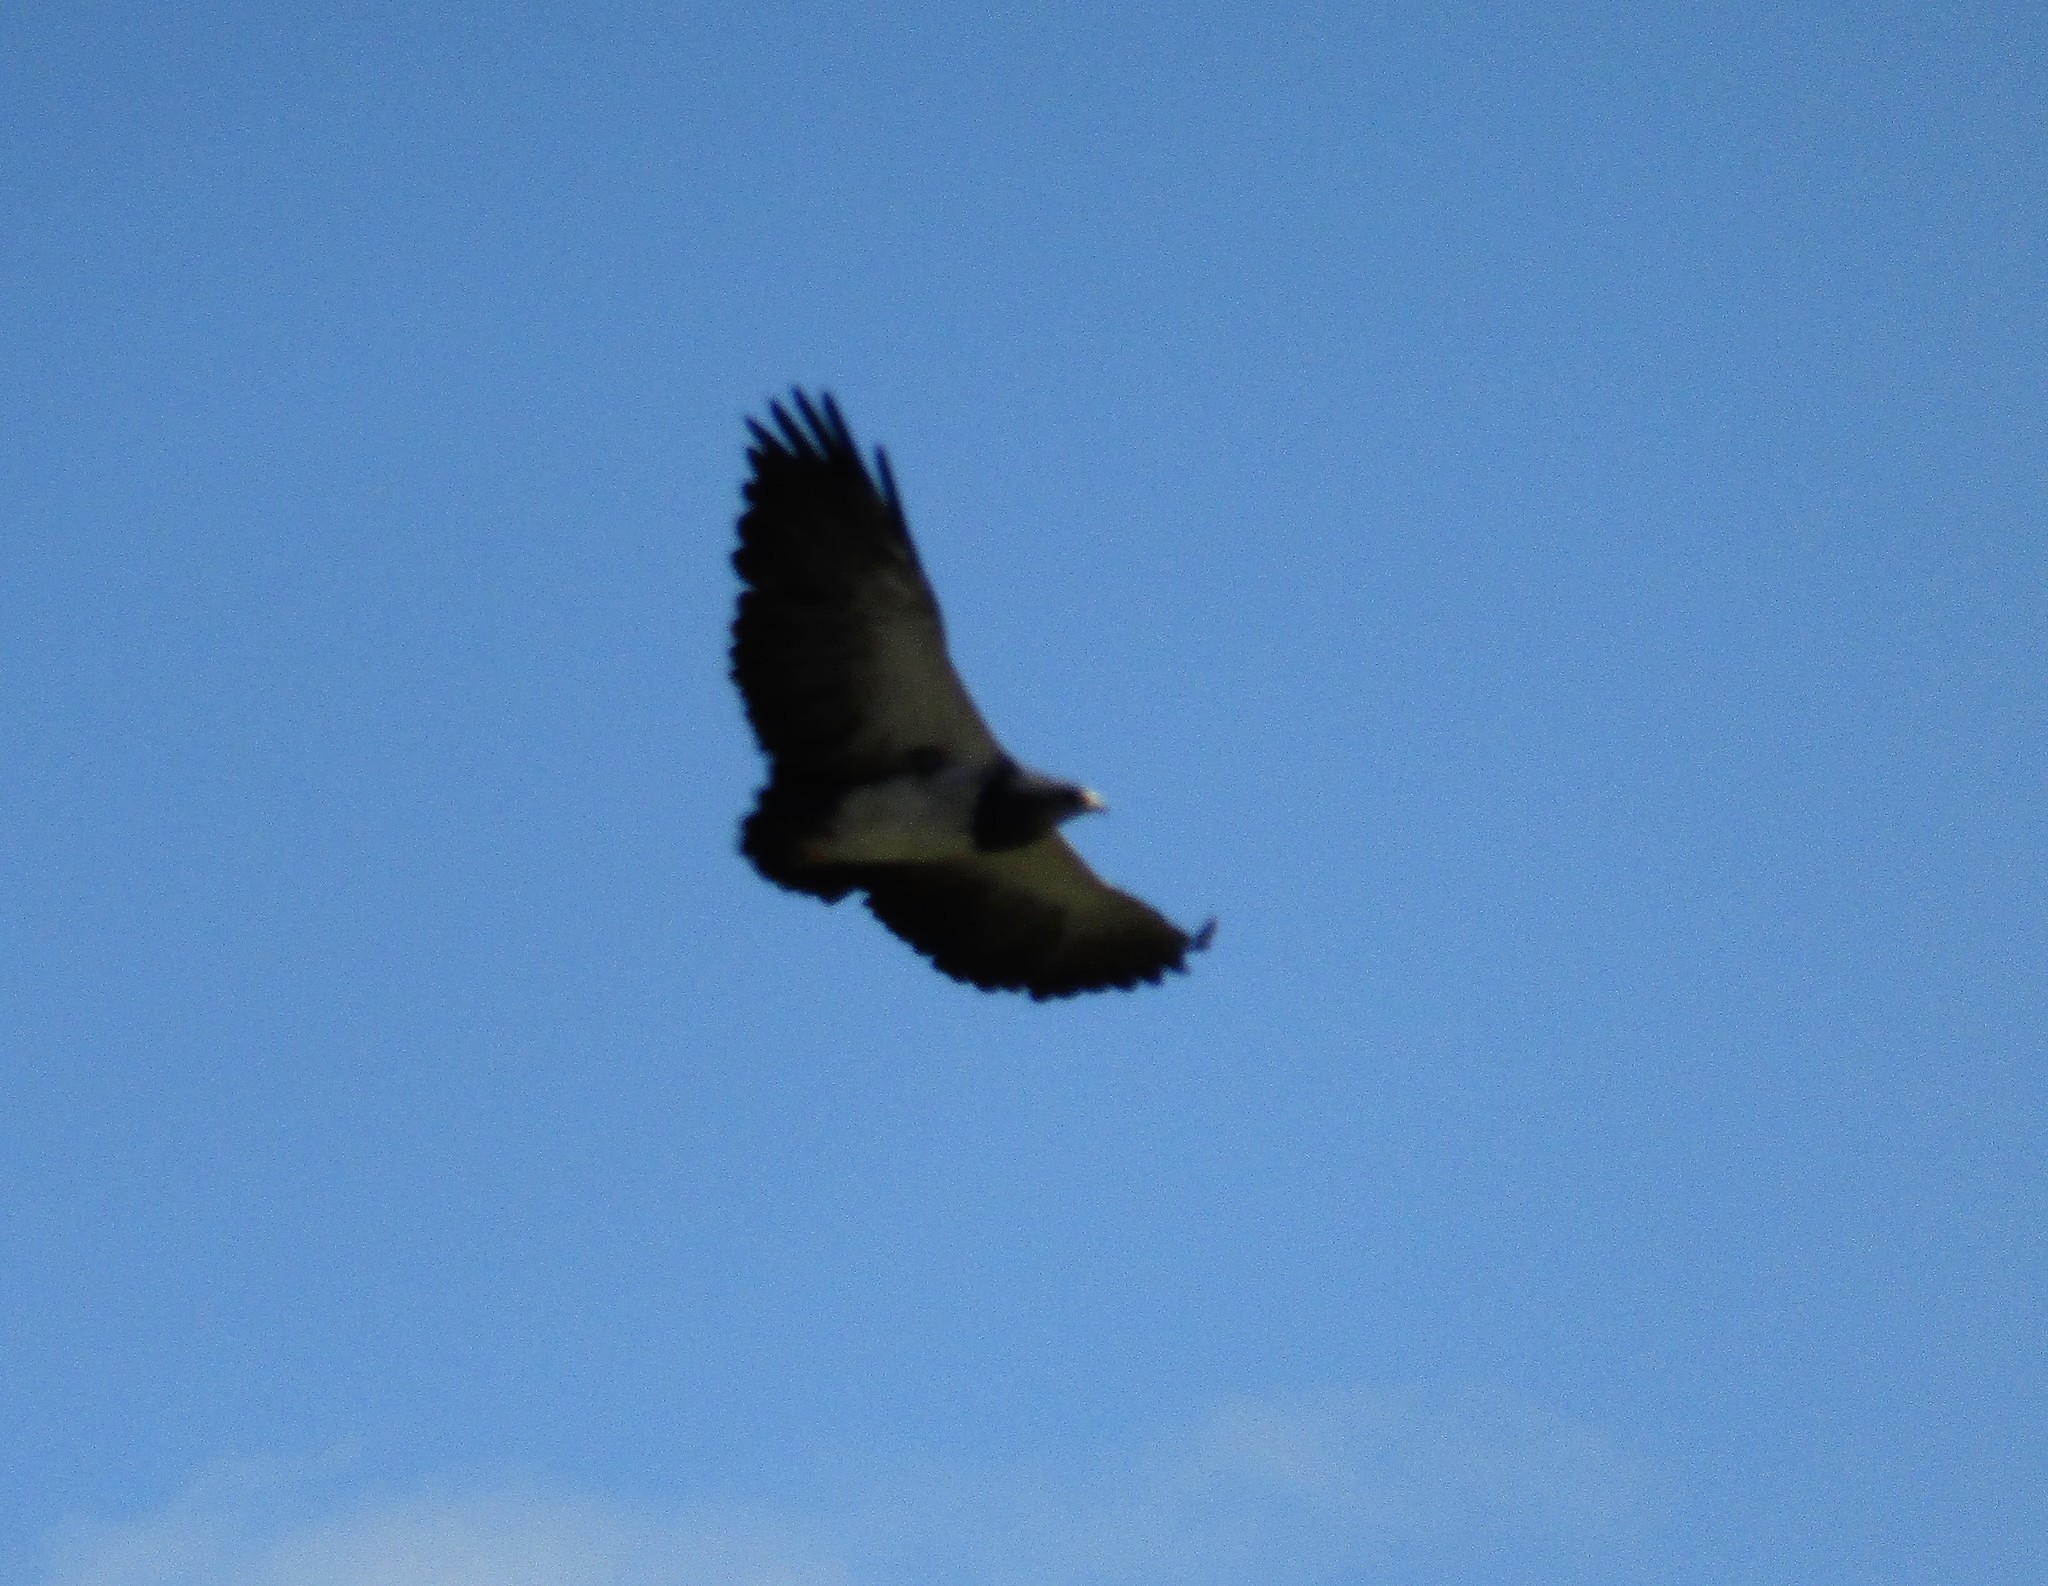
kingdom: Animalia
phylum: Chordata
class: Aves
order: Accipitriformes
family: Accipitridae
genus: Geranoaetus
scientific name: Geranoaetus melanoleucus
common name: Black-chested buzzard-eagle
